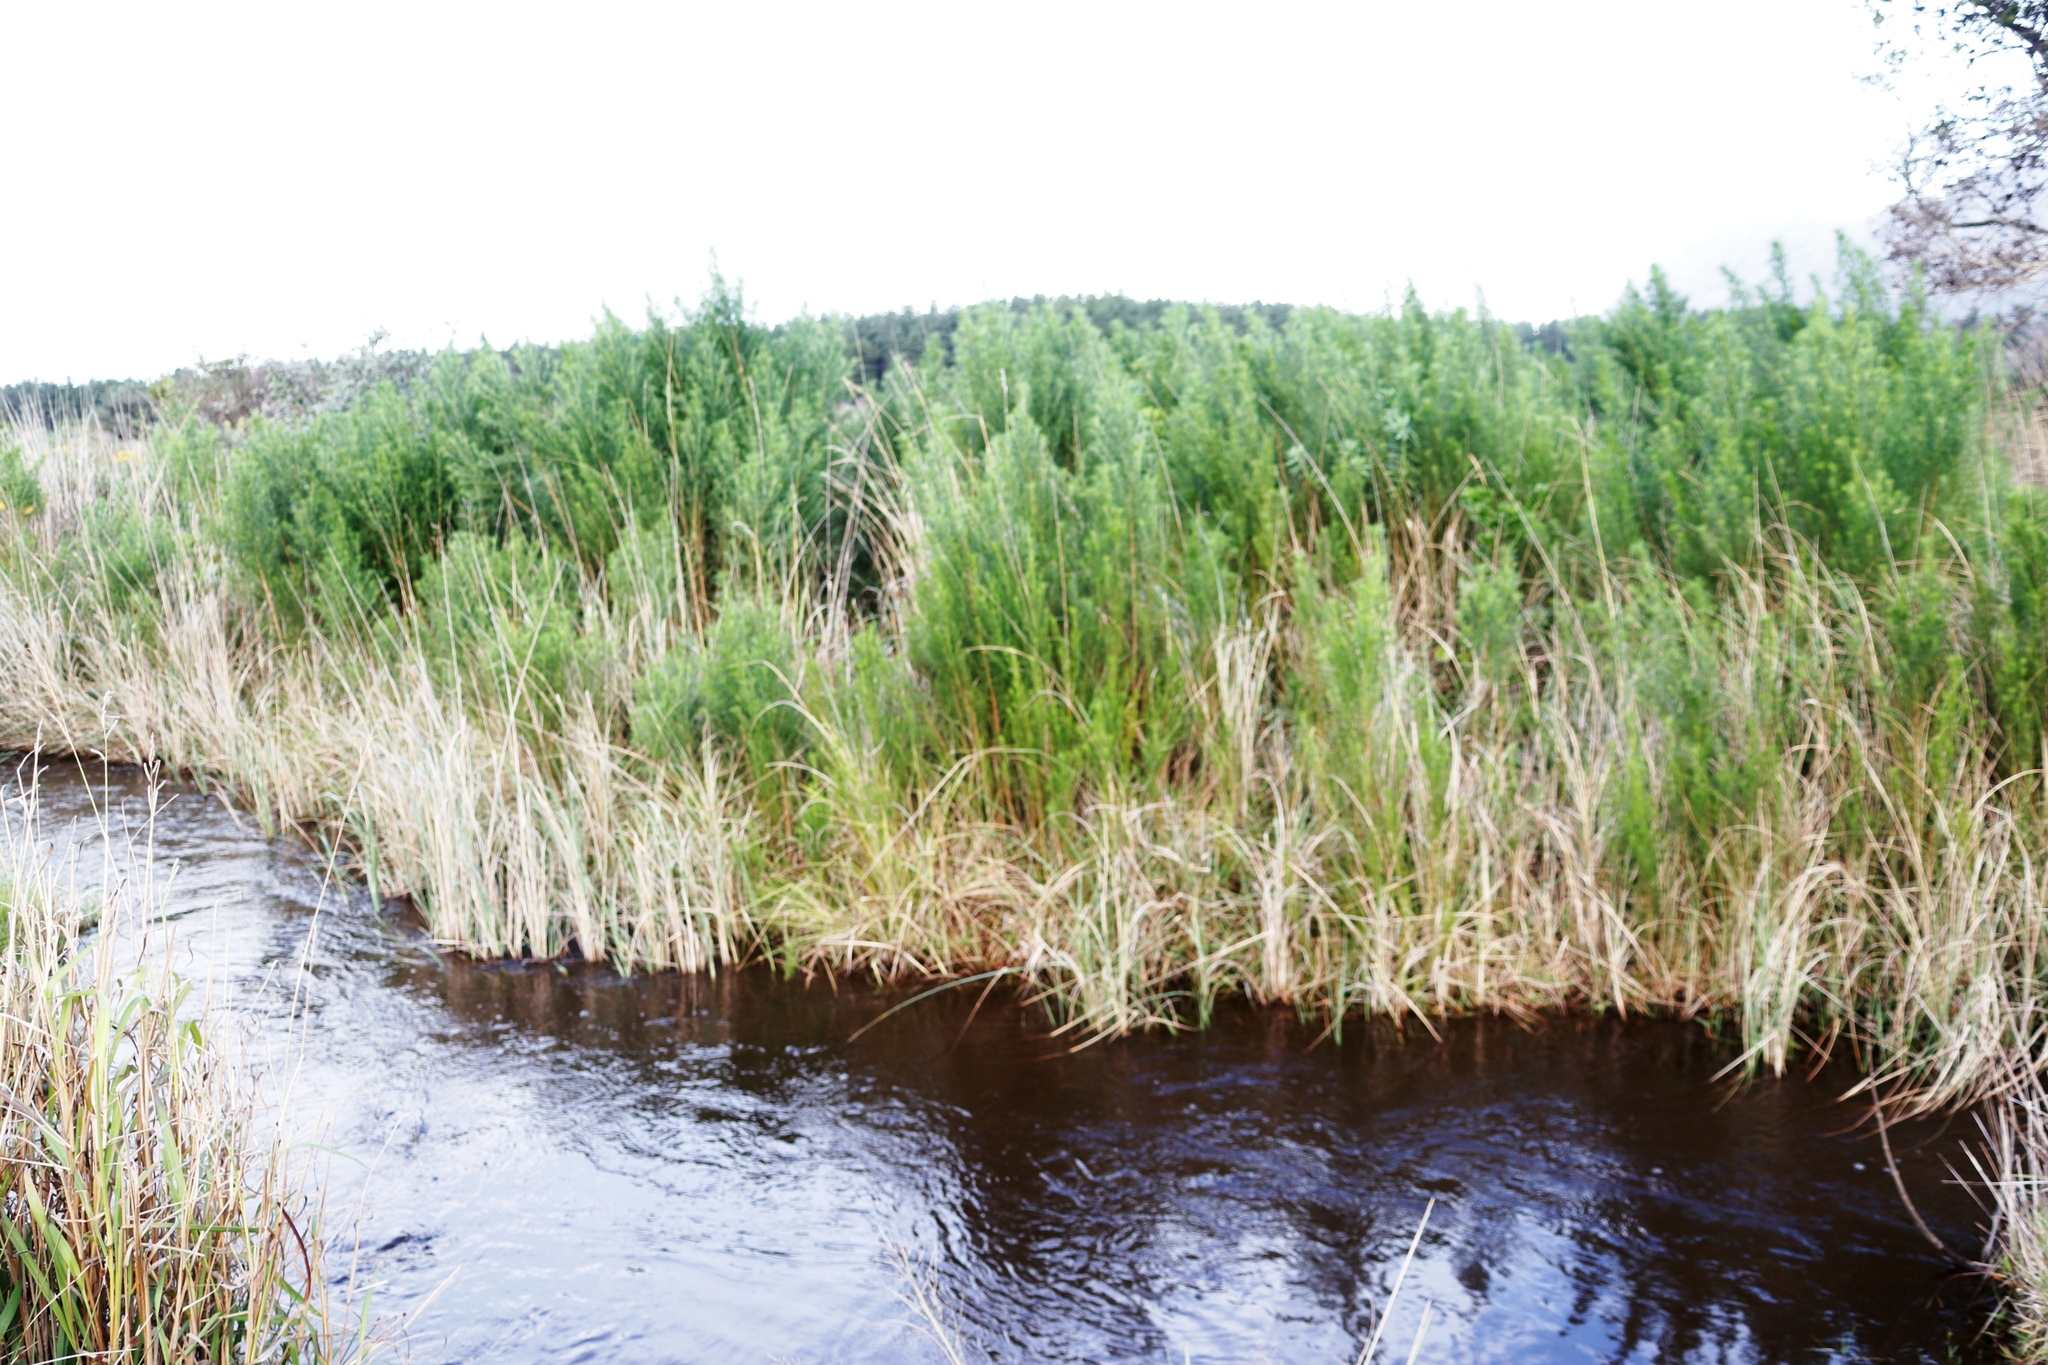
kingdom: Plantae
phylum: Tracheophyta
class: Magnoliopsida
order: Fabales
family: Fabaceae
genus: Psoralea
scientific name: Psoralea pinnata
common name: African scurfpea
